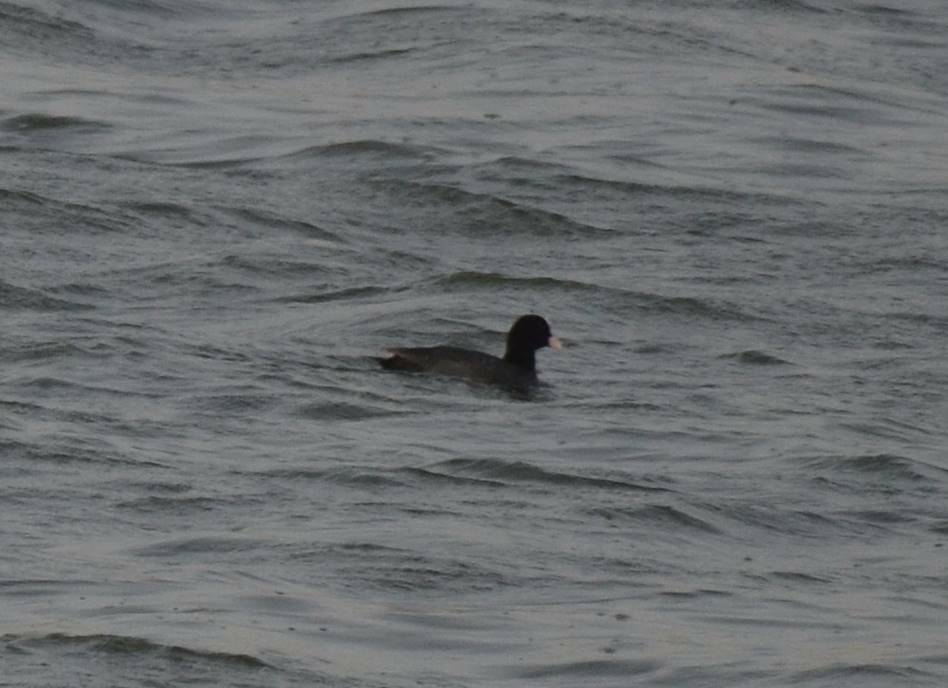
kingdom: Animalia
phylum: Chordata
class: Aves
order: Gruiformes
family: Rallidae
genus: Fulica
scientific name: Fulica atra
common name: Eurasian coot
